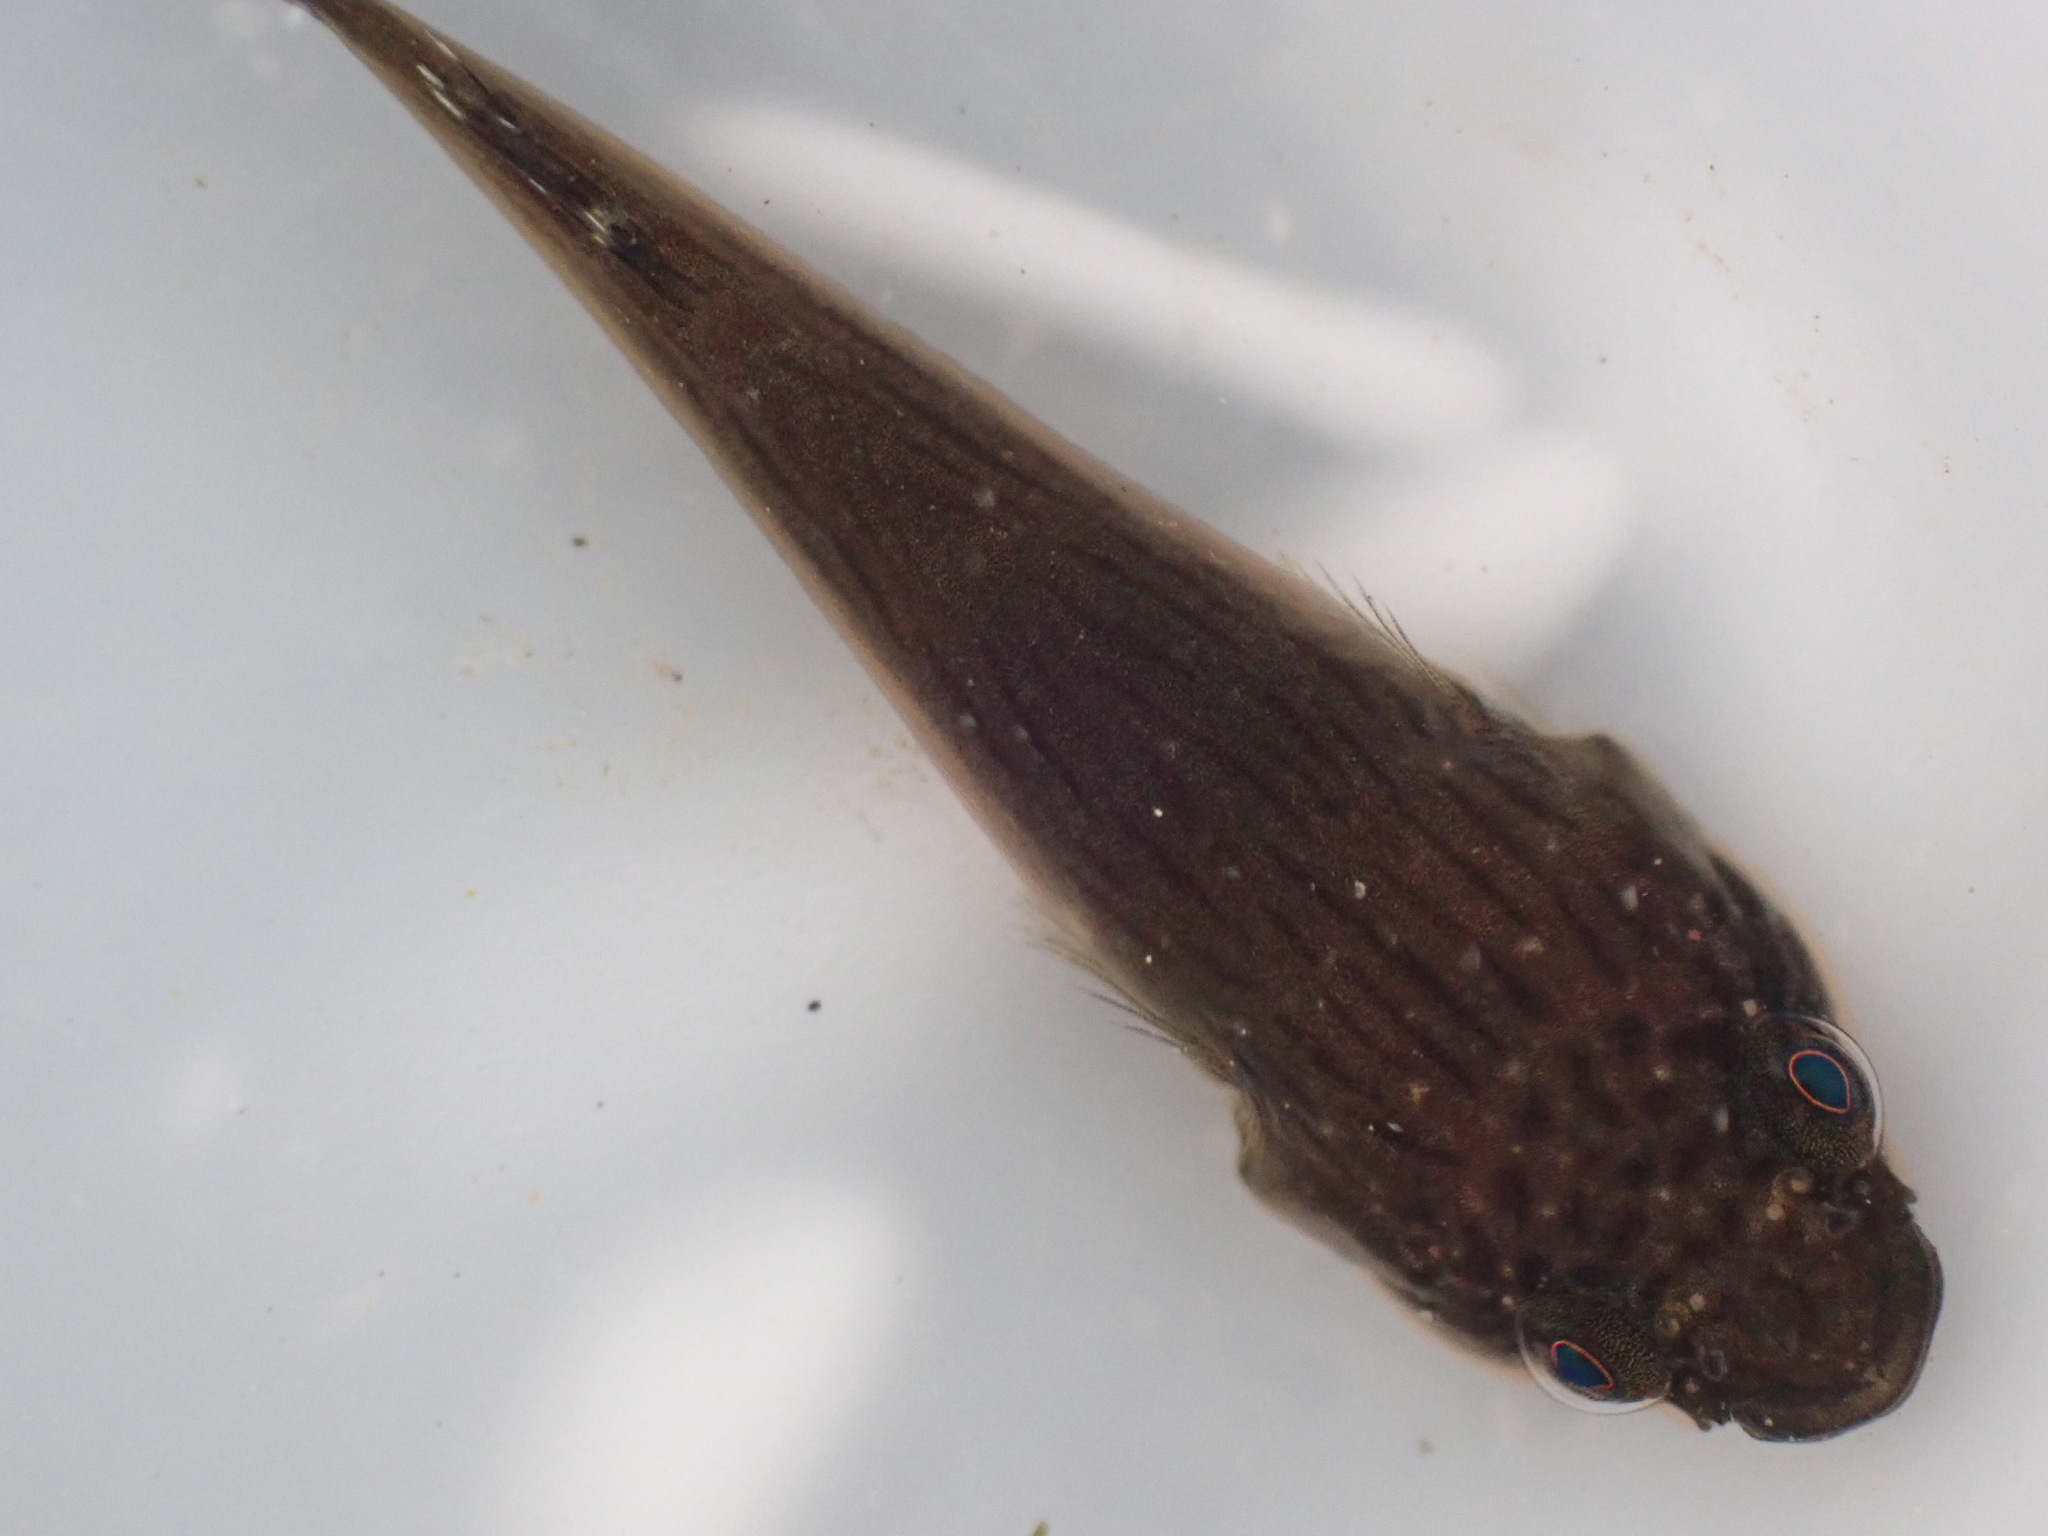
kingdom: Animalia
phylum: Chordata
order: Gobiesociformes
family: Gobiesocidae
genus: Trachelochismus
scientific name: Trachelochismus pinnulatus
